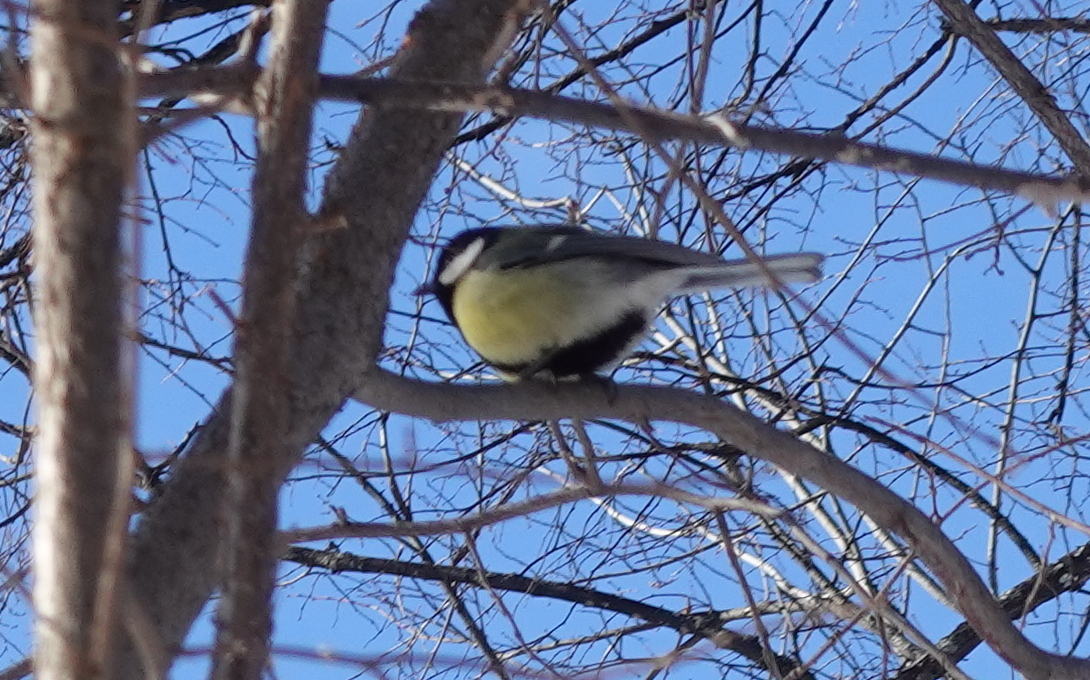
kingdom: Animalia
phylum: Chordata
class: Aves
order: Passeriformes
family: Paridae
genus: Parus
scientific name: Parus major
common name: Great tit
